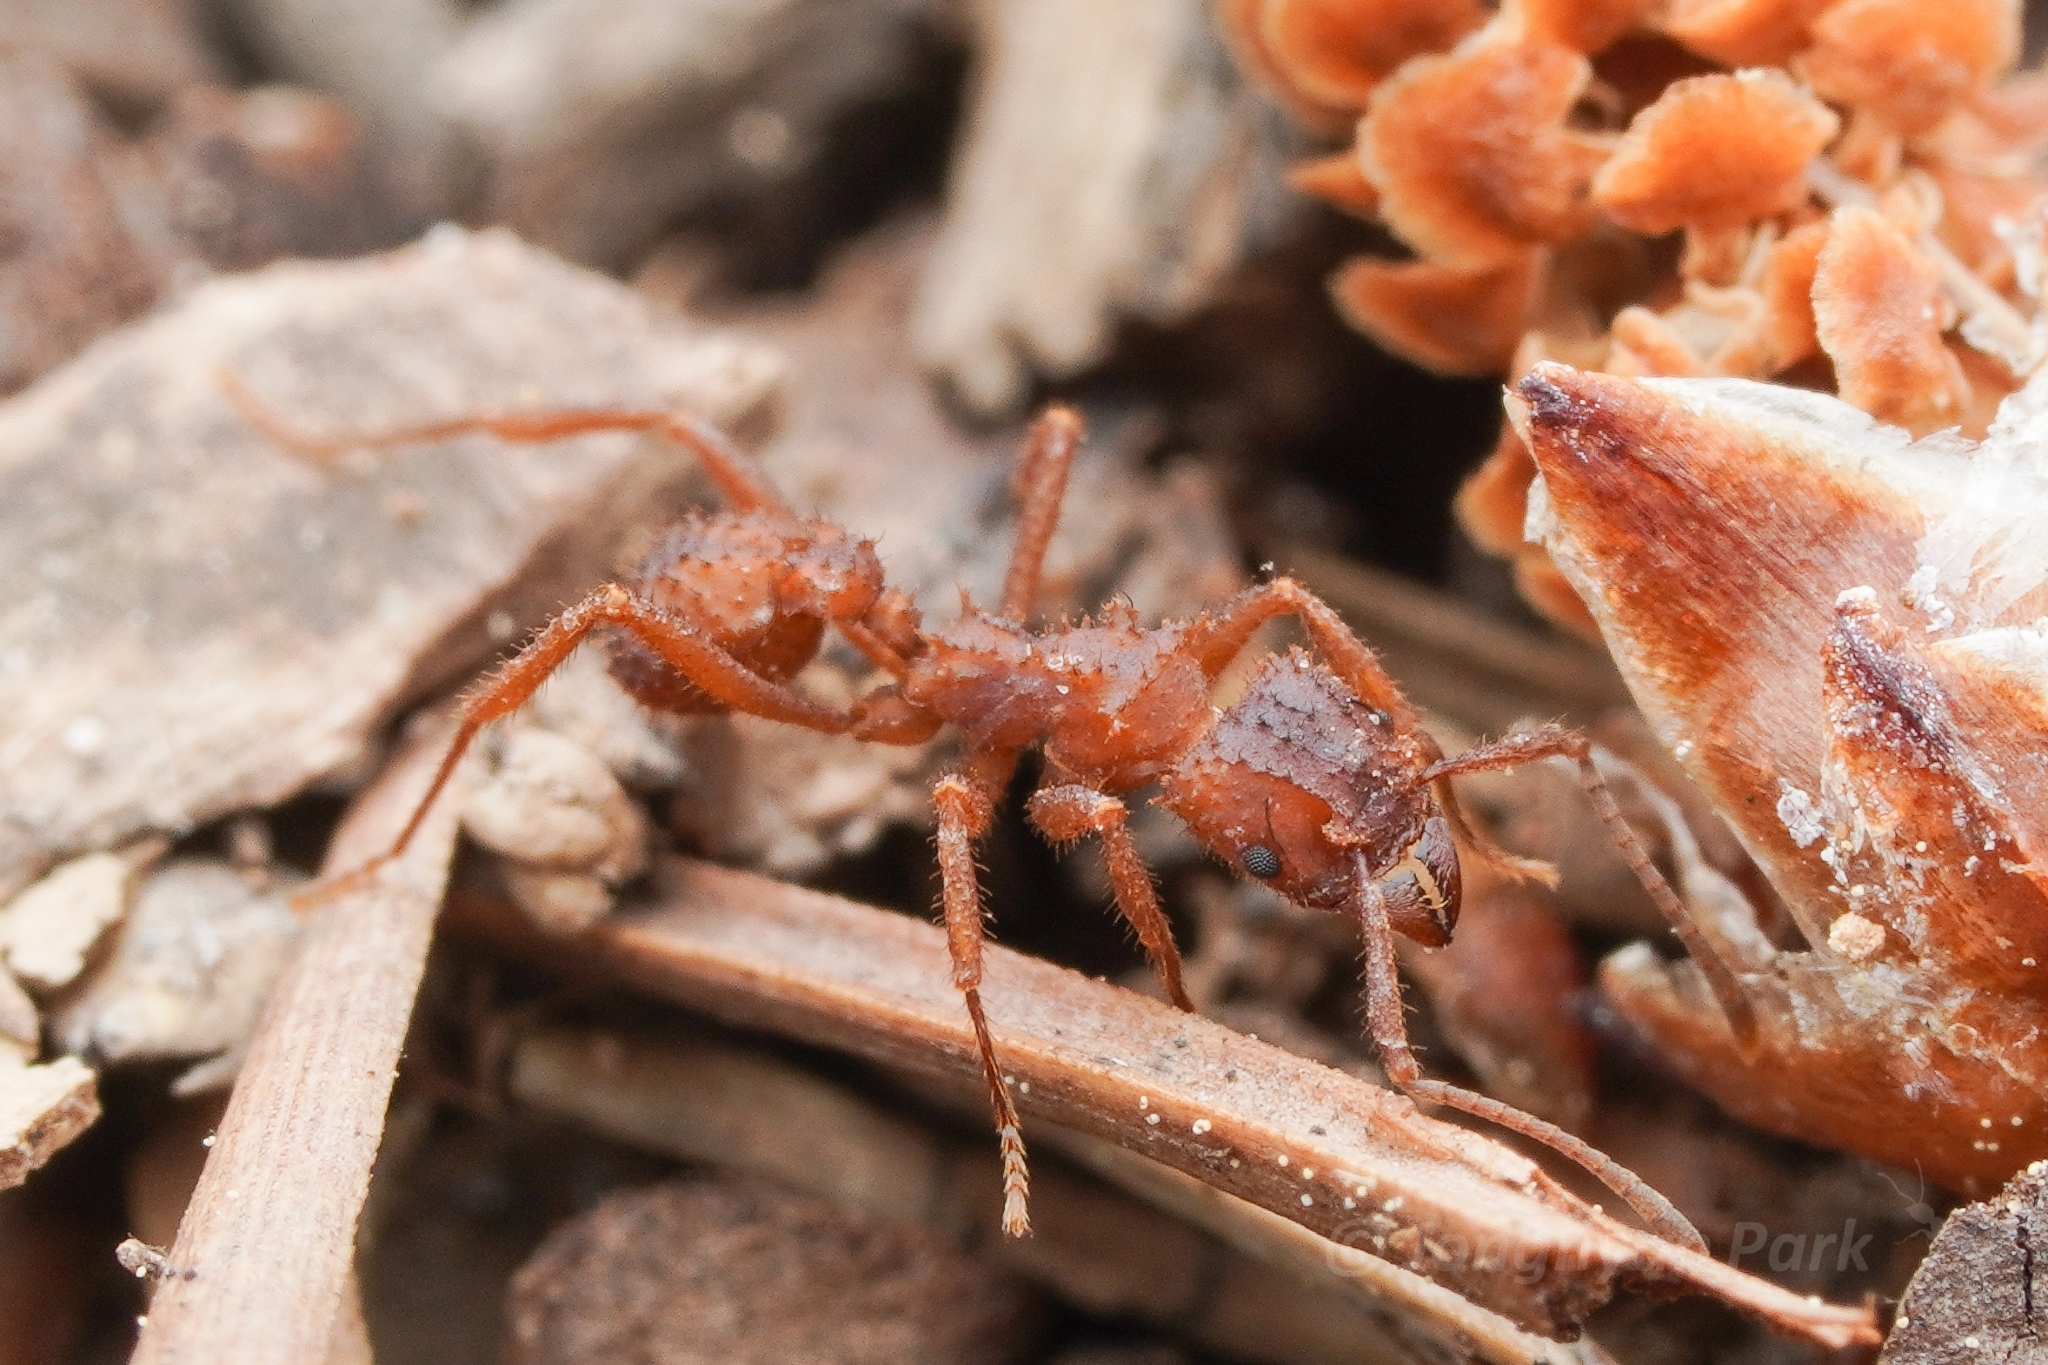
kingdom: Animalia
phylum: Arthropoda
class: Insecta
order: Hymenoptera
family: Formicidae
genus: Trachymyrmex
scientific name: Trachymyrmex arizonensis
